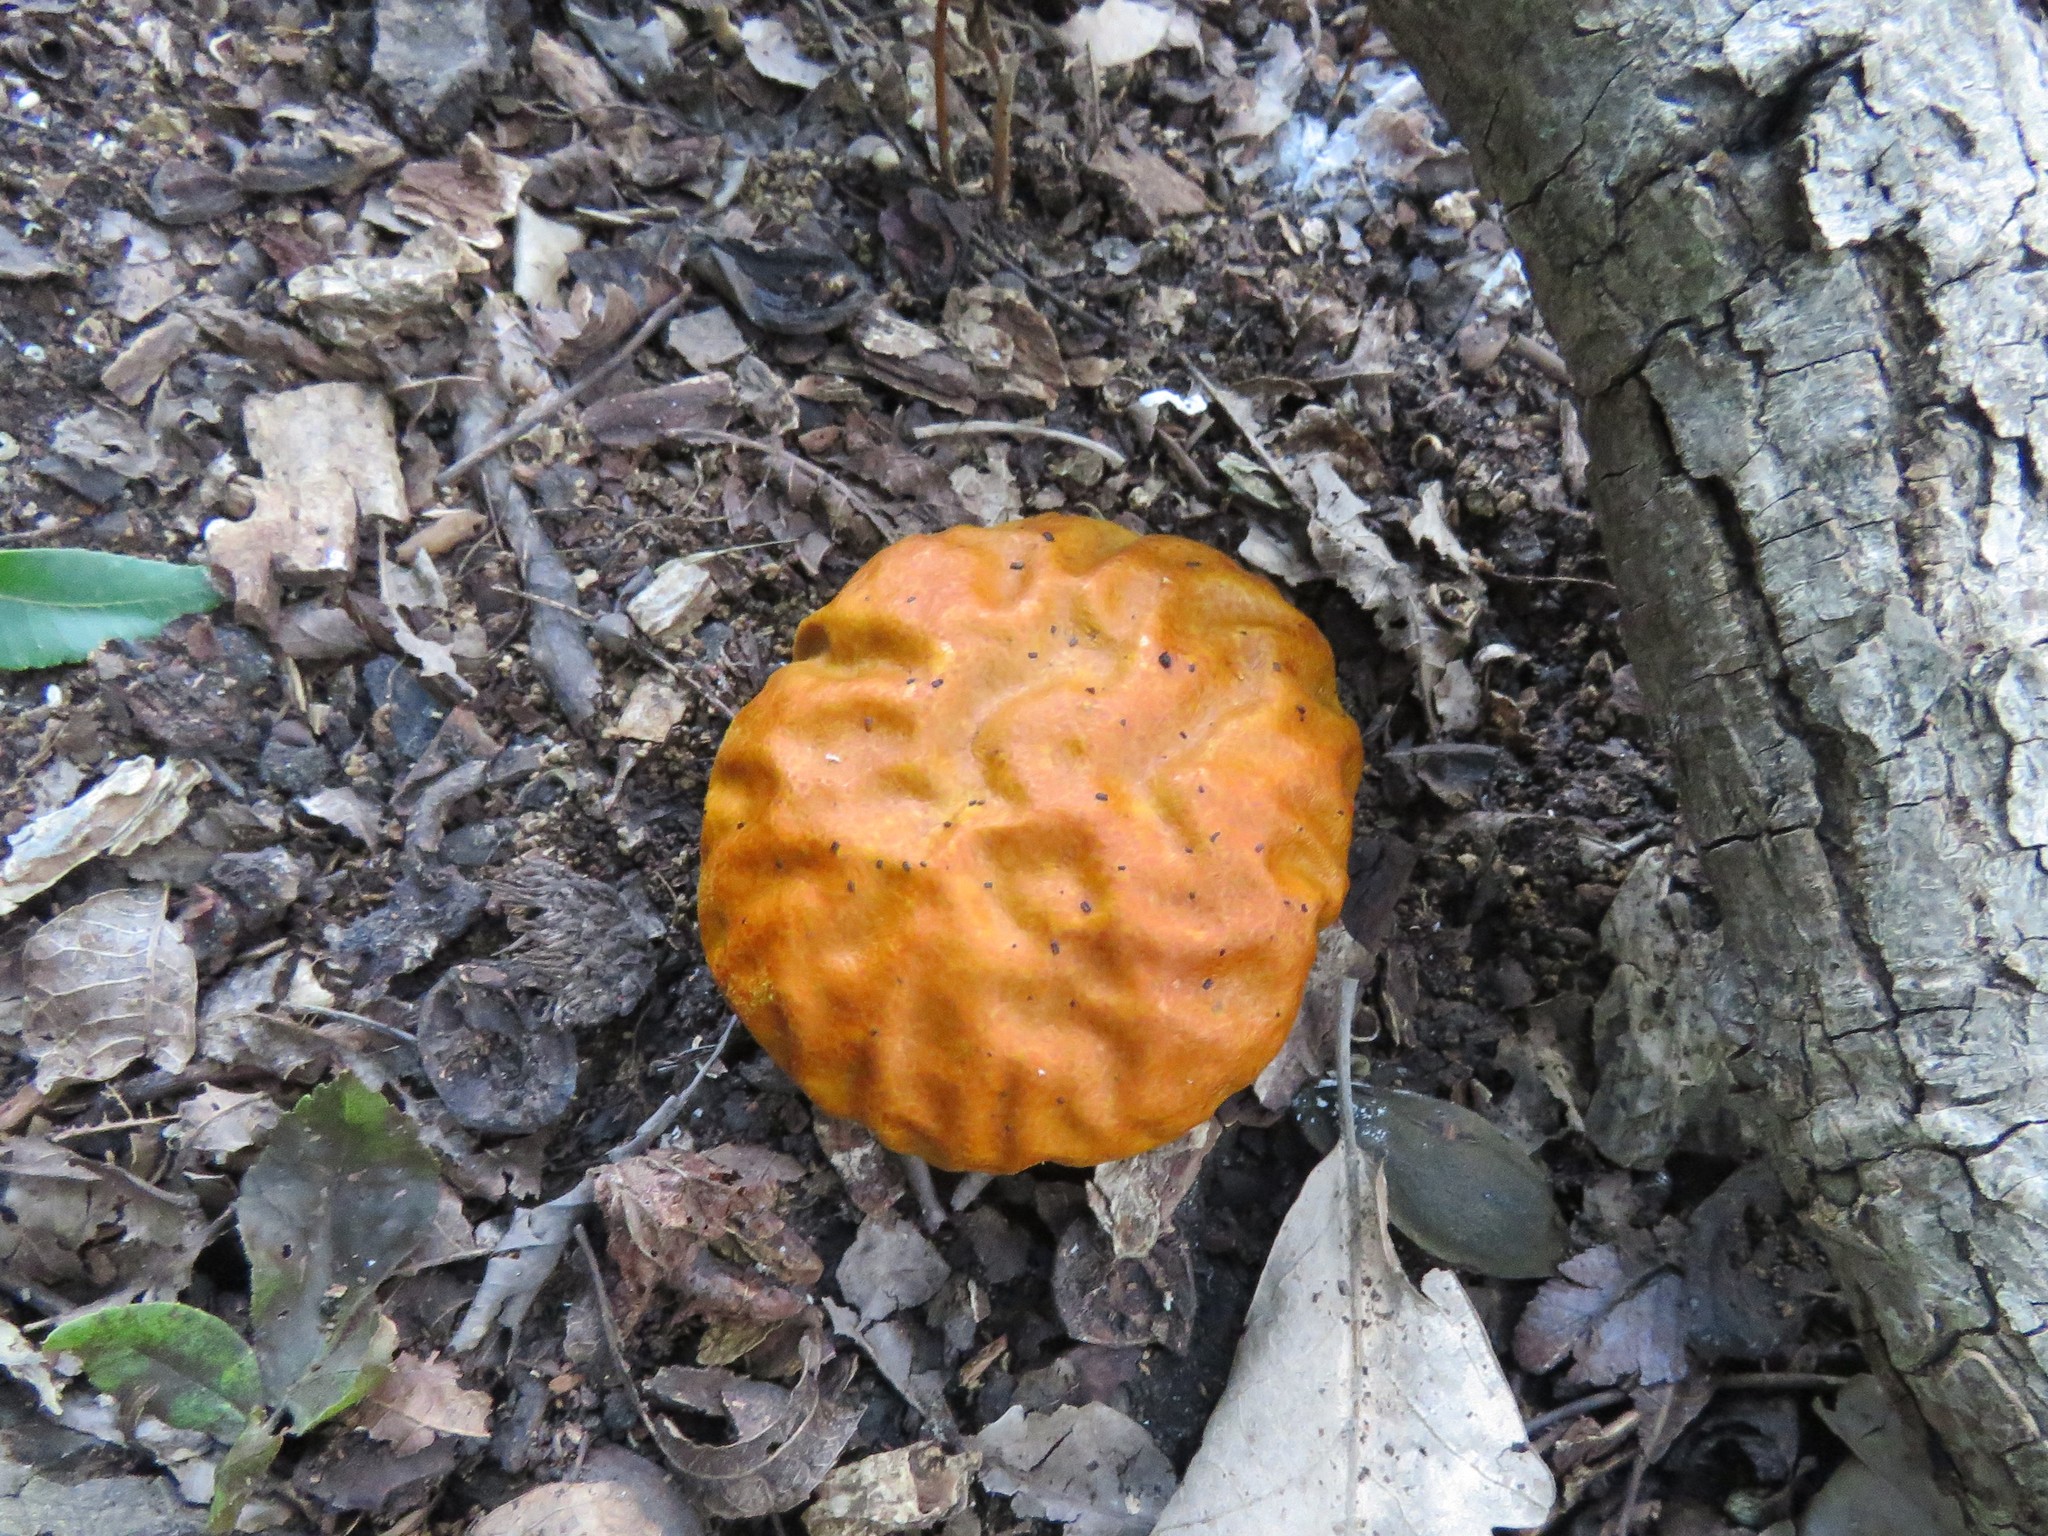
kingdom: Fungi
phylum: Basidiomycota
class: Agaricomycetes
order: Agaricales
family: Lycoperdaceae
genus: Calvatia
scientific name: Calvatia rugosa
